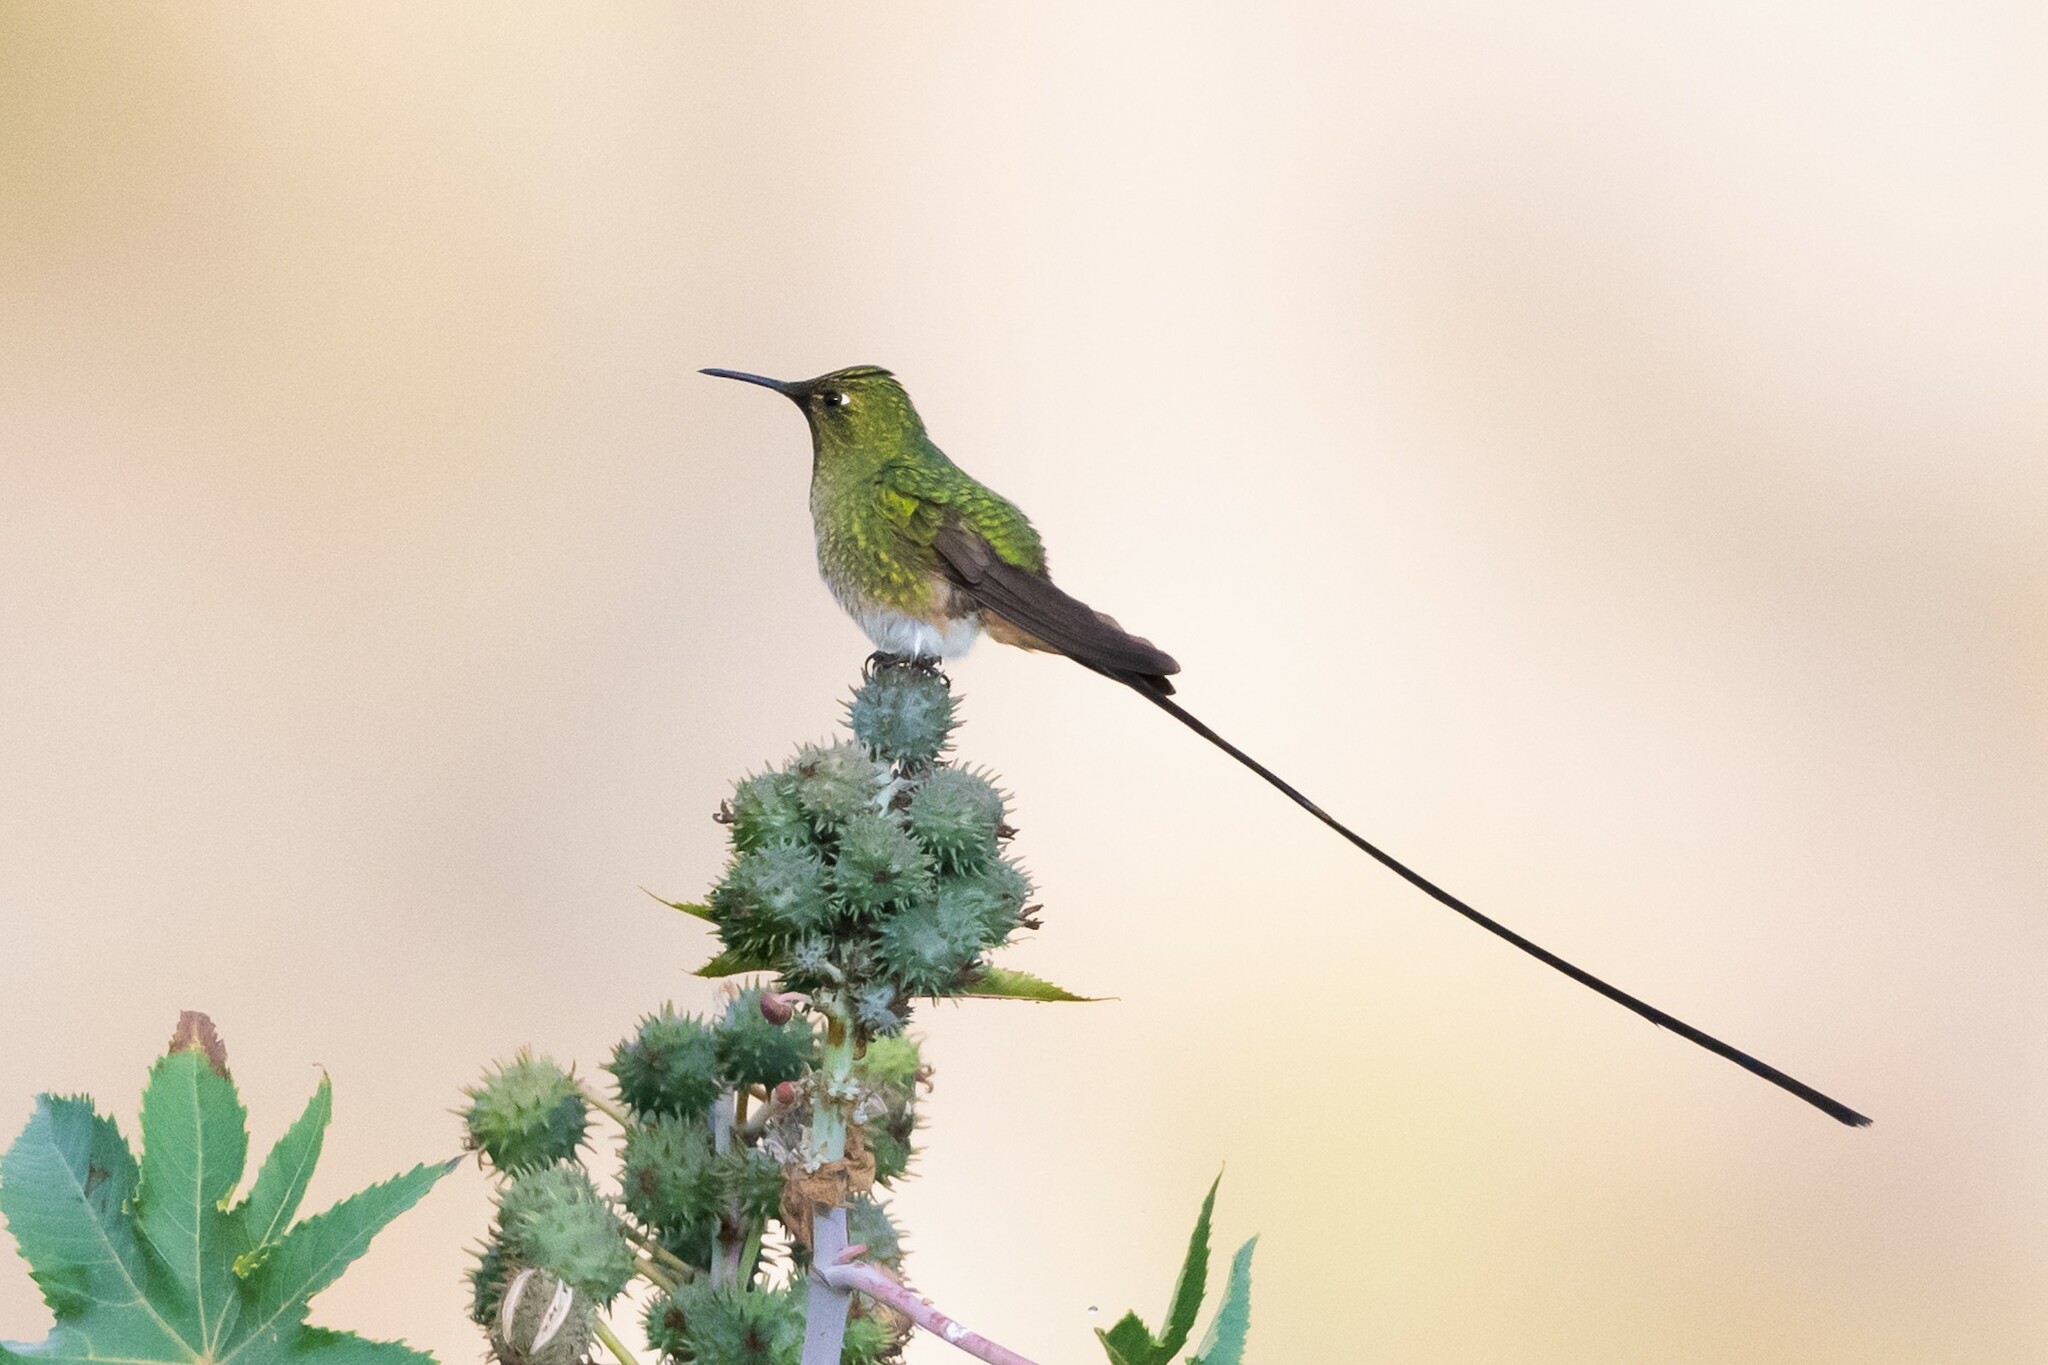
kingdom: Animalia
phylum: Chordata
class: Aves
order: Apodiformes
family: Trochilidae
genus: Lesbia
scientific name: Lesbia victoriae
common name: Black-tailed trainbearer
